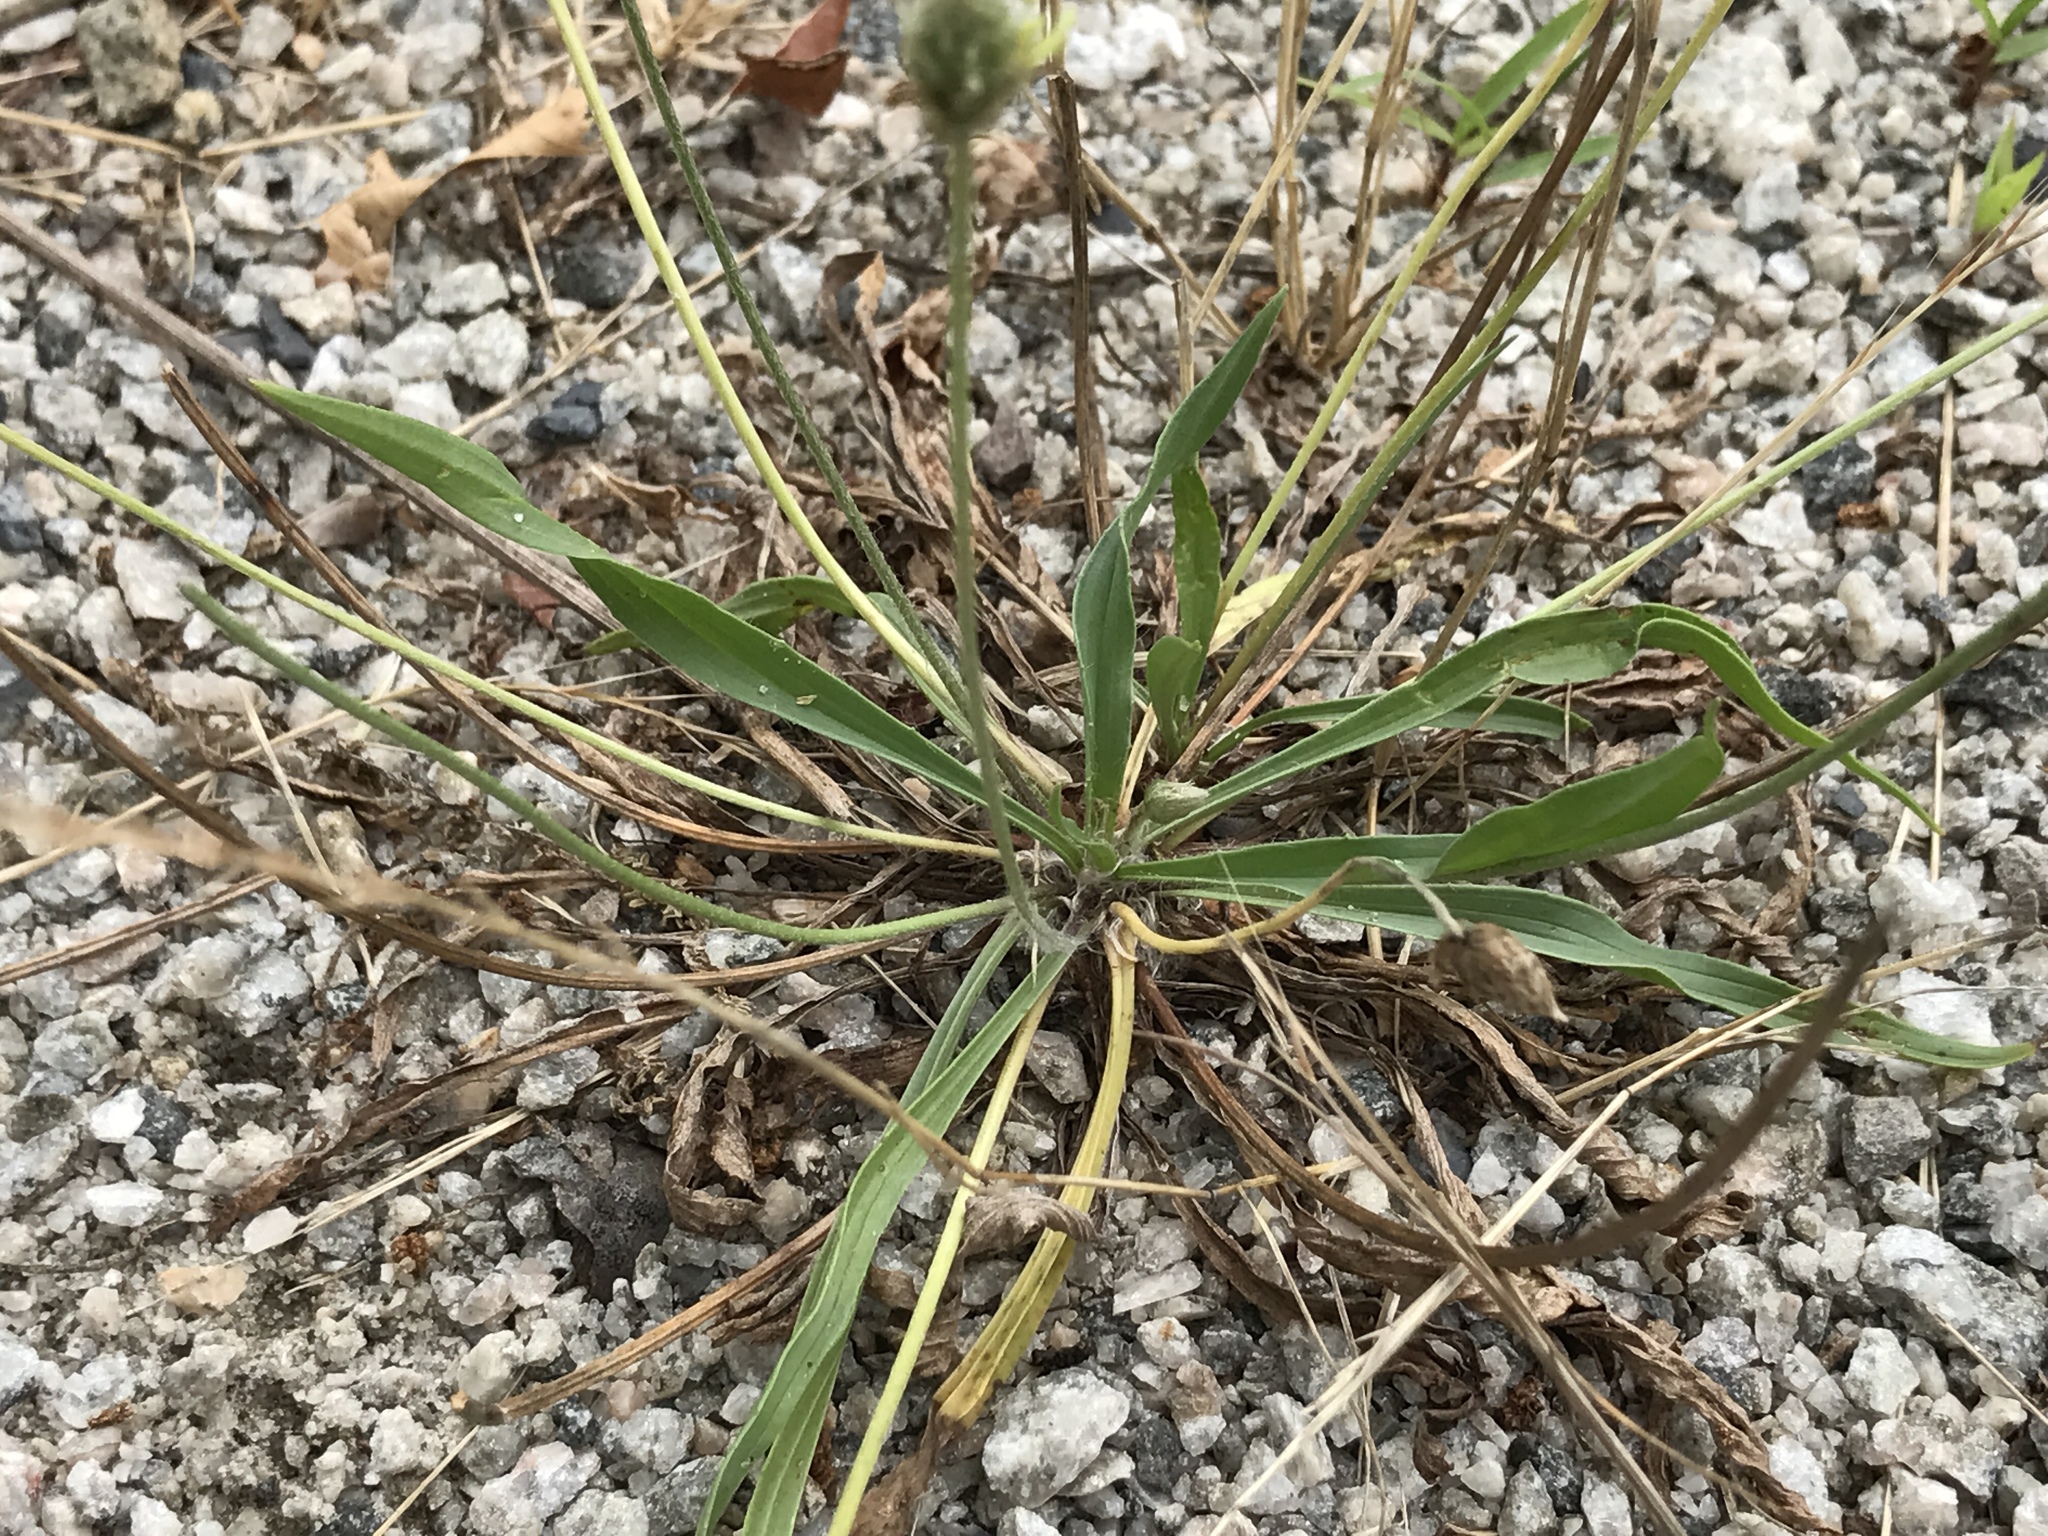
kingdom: Plantae
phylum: Tracheophyta
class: Magnoliopsida
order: Lamiales
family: Plantaginaceae
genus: Plantago
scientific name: Plantago lanceolata
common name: Ribwort plantain
